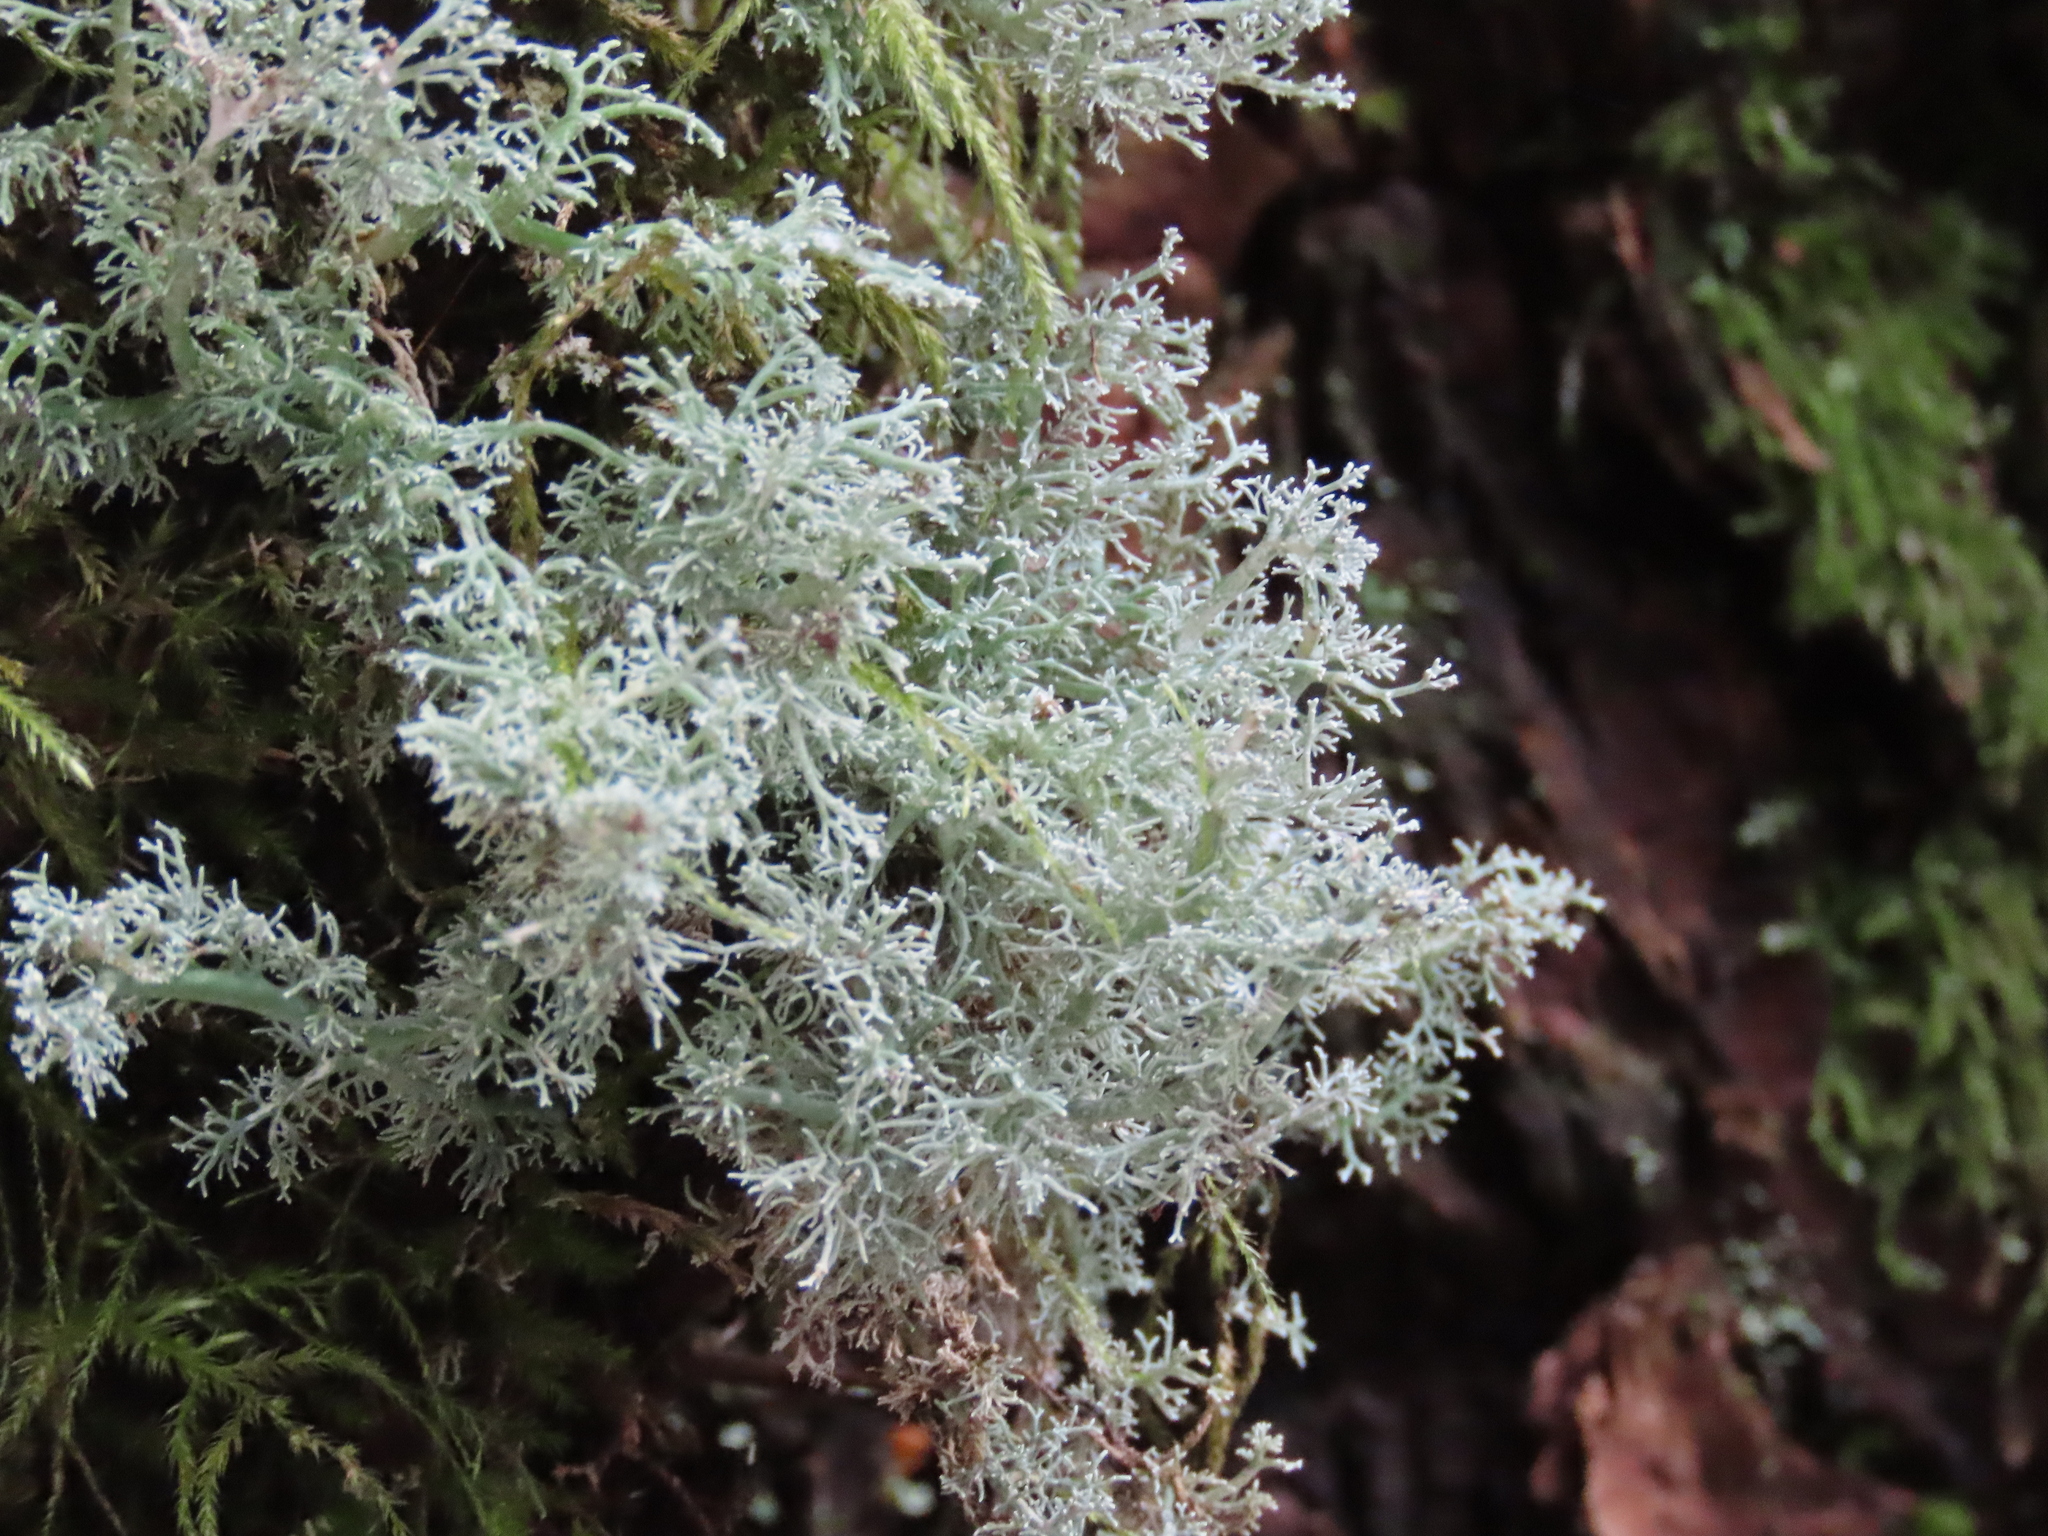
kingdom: Fungi
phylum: Ascomycota
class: Lecanoromycetes
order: Lecanorales
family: Sphaerophoraceae
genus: Sphaerophorus
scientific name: Sphaerophorus globosus
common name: Globe ball lichen
